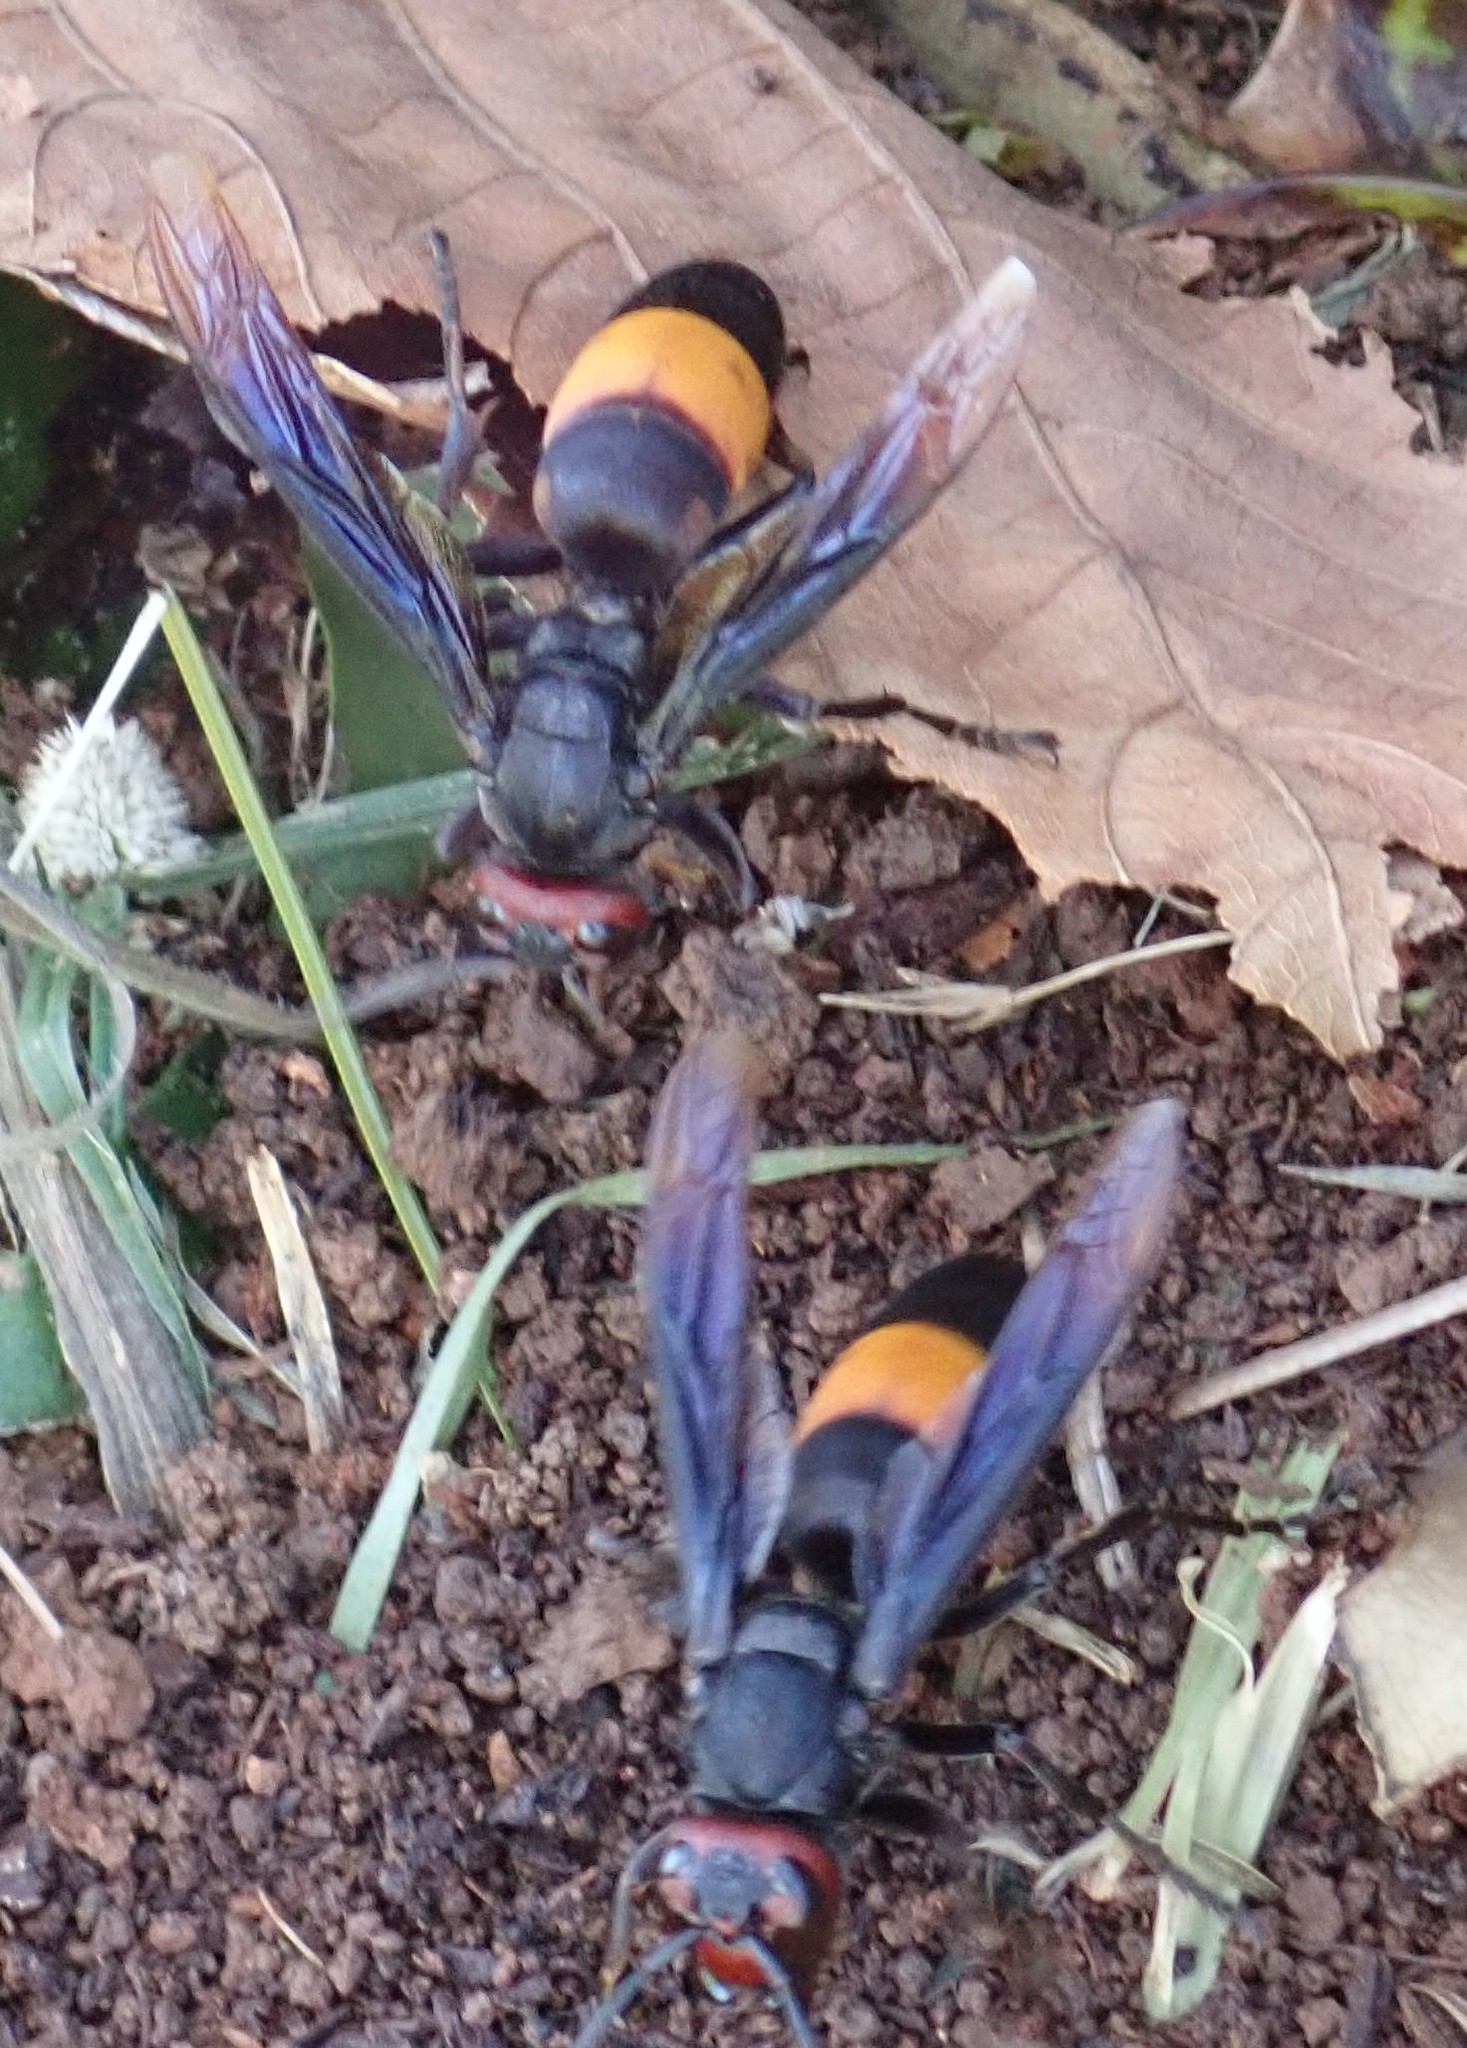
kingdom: Animalia
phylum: Arthropoda
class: Insecta
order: Hymenoptera
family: Vespidae
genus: Vespa
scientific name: Vespa tropica
